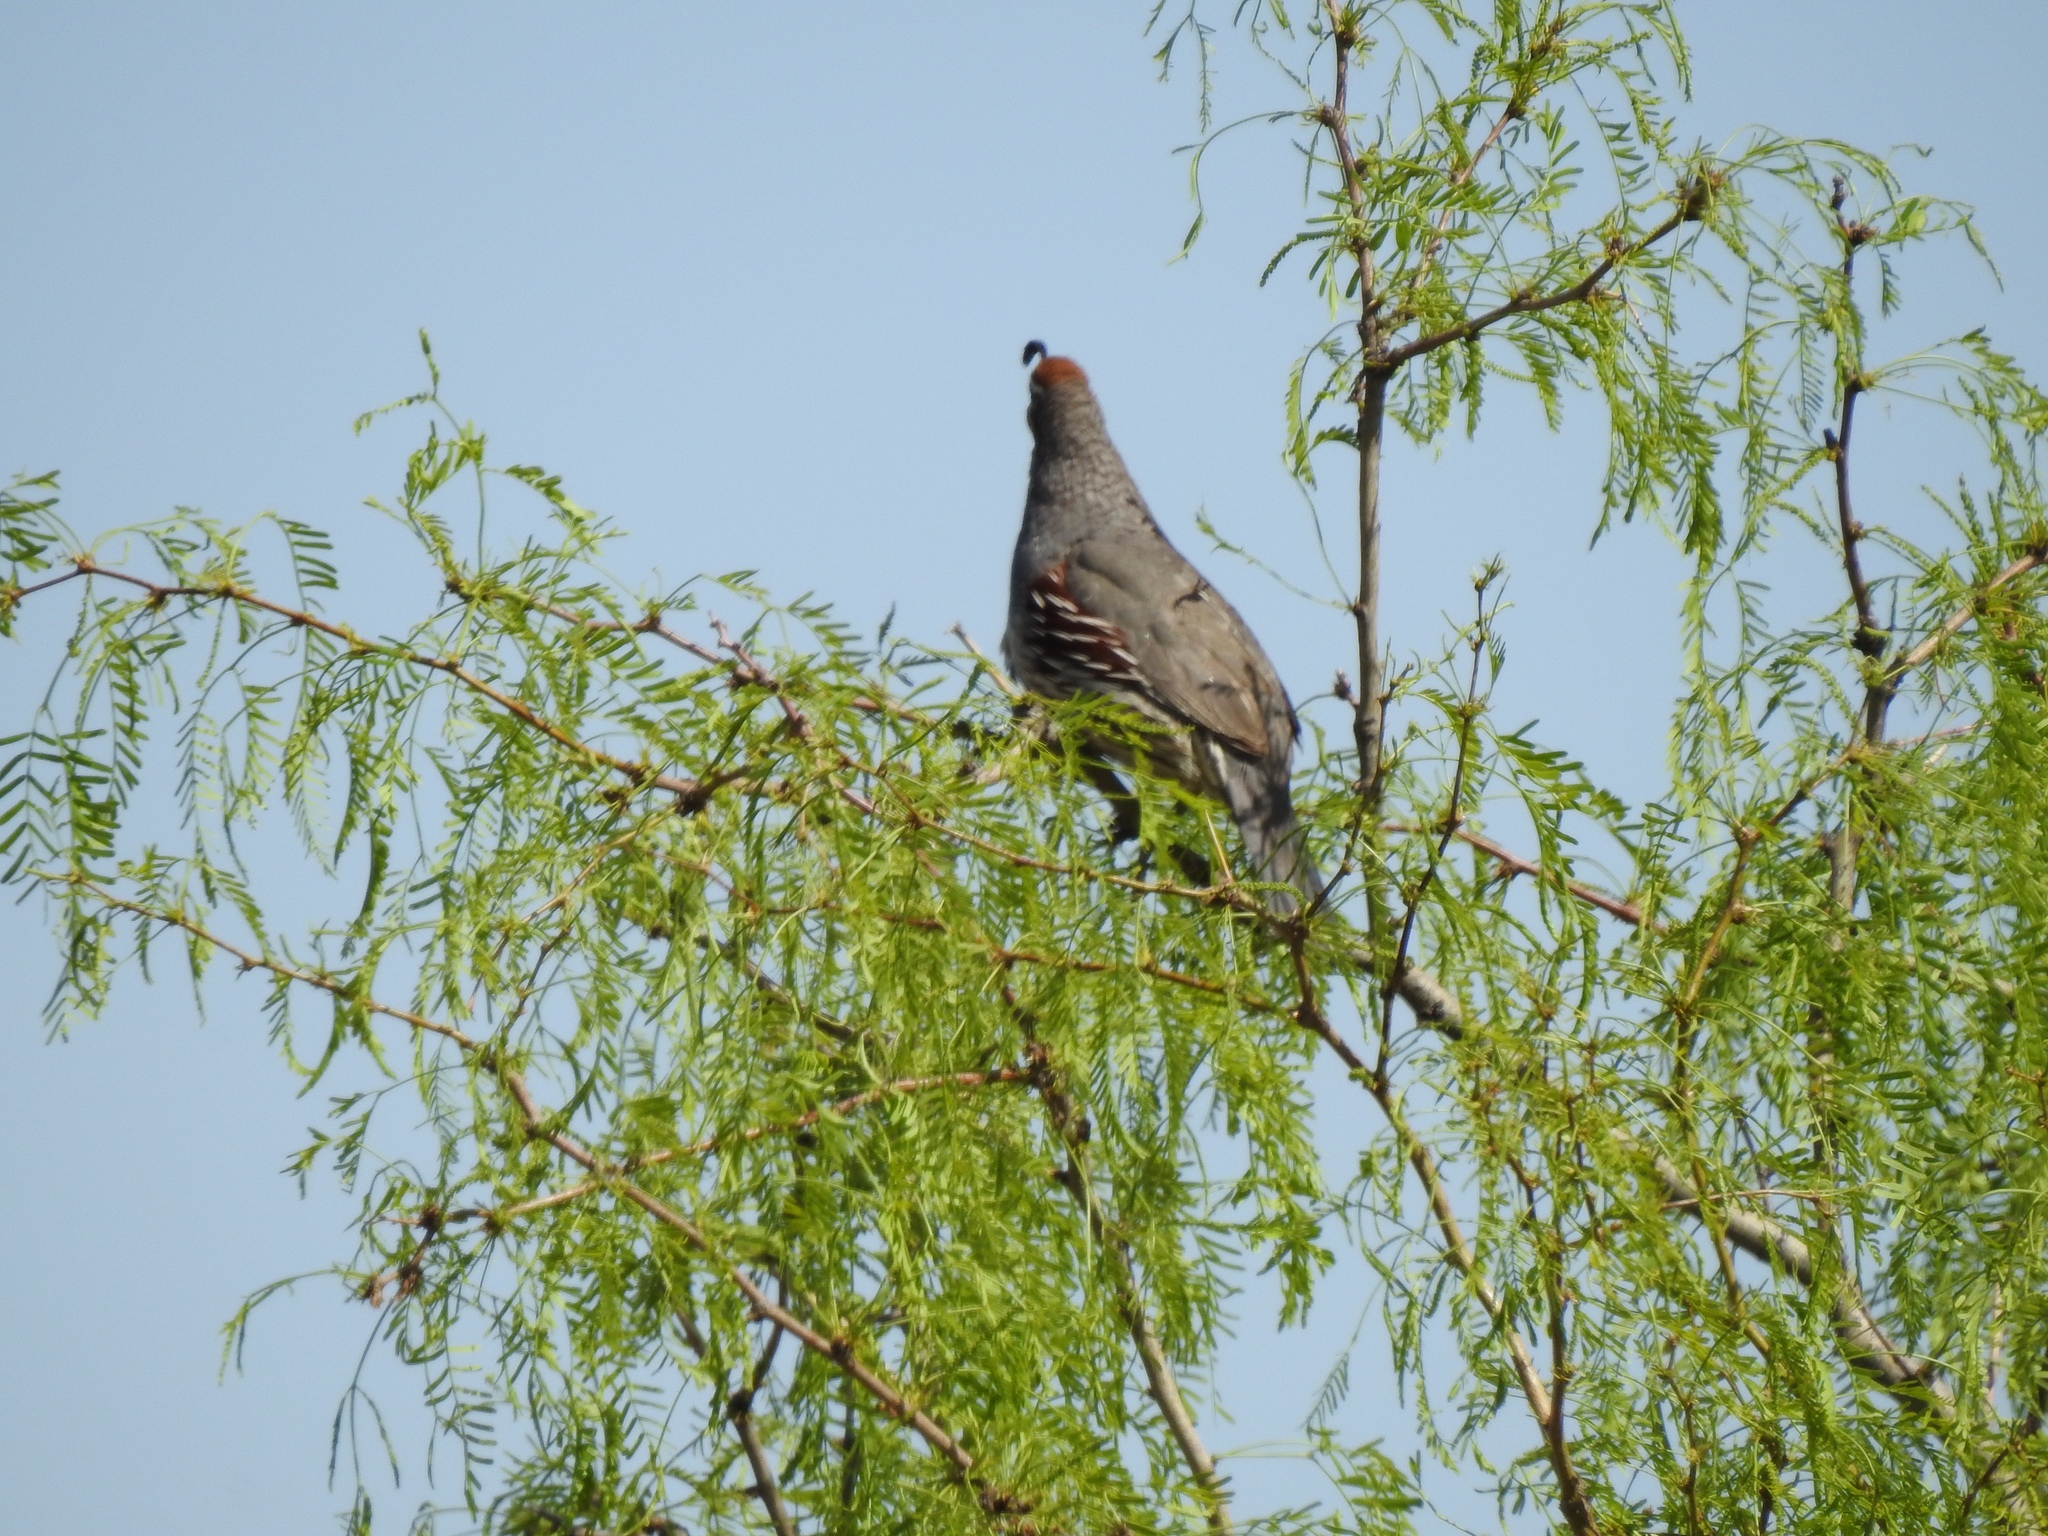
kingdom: Animalia
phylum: Chordata
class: Aves
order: Galliformes
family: Odontophoridae
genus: Callipepla
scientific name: Callipepla gambelii
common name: Gambel's quail
